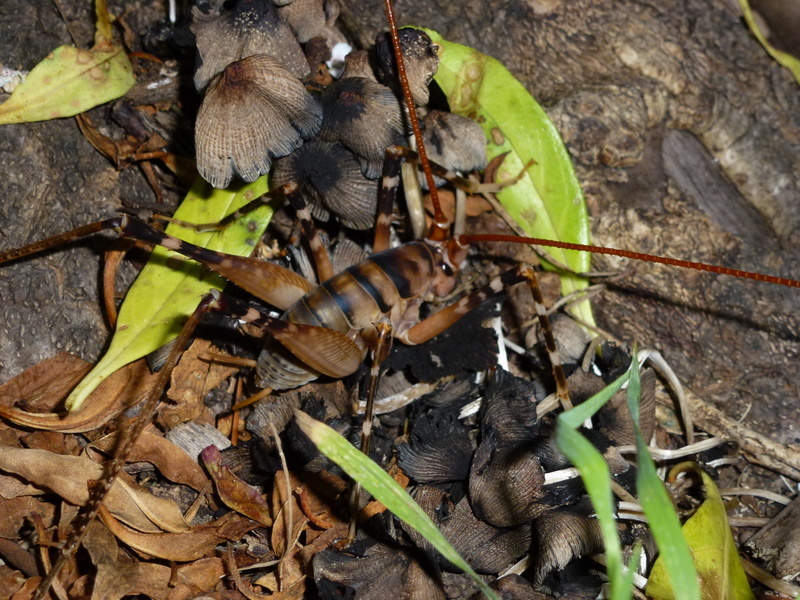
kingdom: Animalia
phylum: Arthropoda
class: Insecta
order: Orthoptera
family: Rhaphidophoridae
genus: Pachyrhamma
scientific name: Pachyrhamma edwardsii
